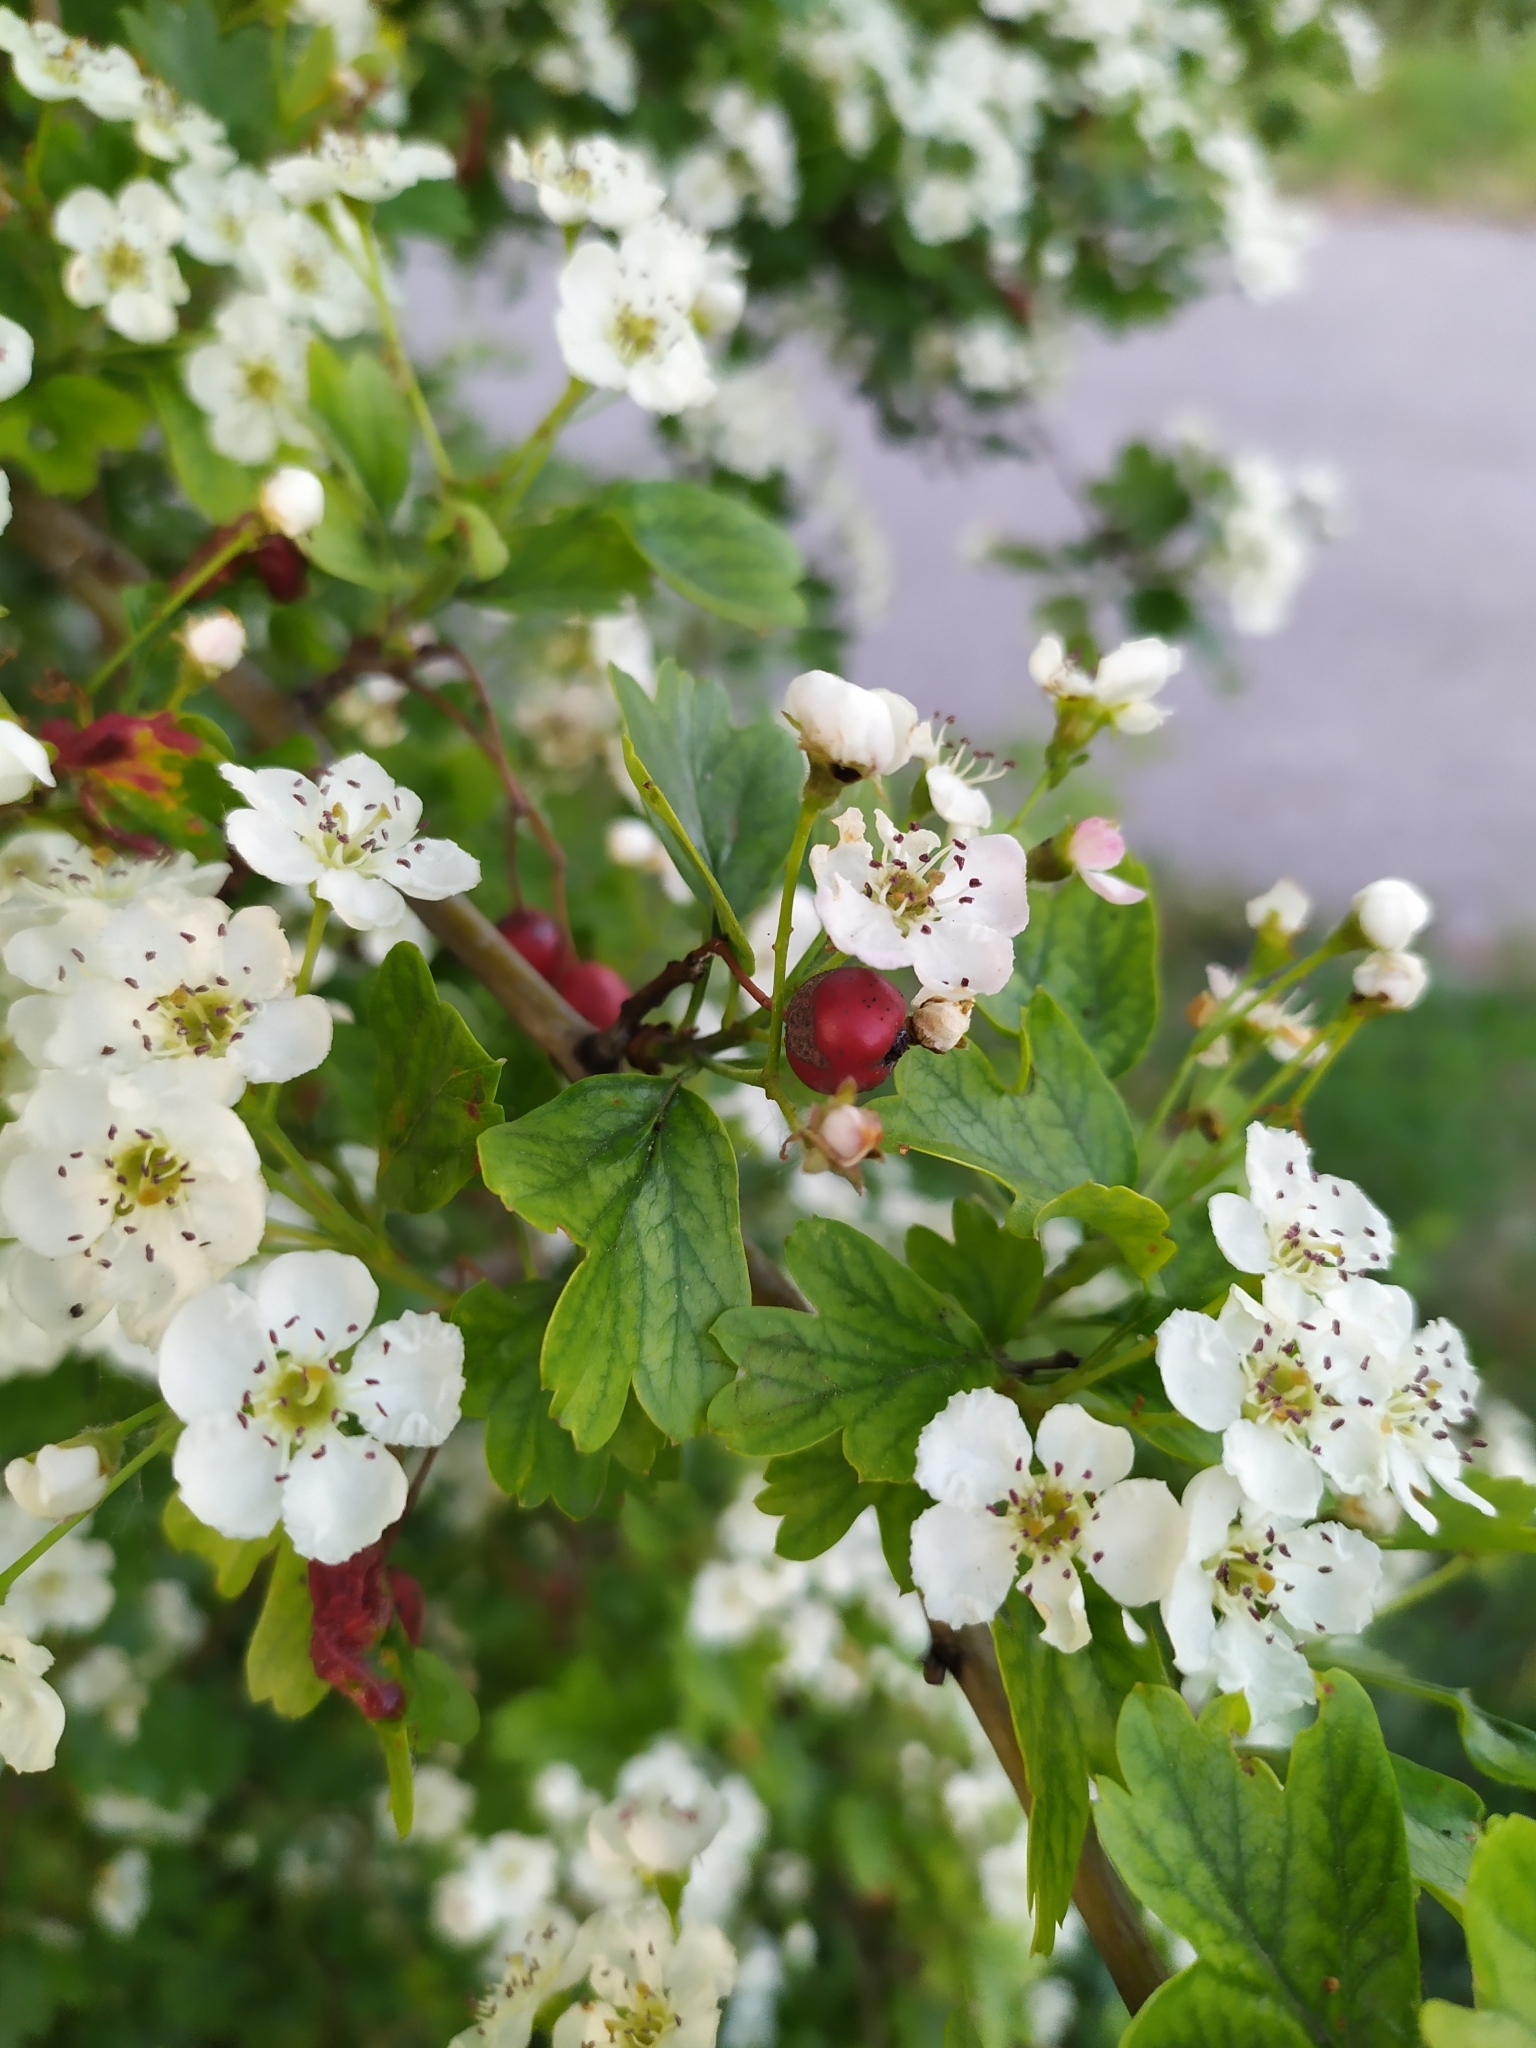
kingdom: Plantae
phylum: Tracheophyta
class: Magnoliopsida
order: Rosales
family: Rosaceae
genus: Crataegus
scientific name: Crataegus media
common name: Intermediate hawthorn
